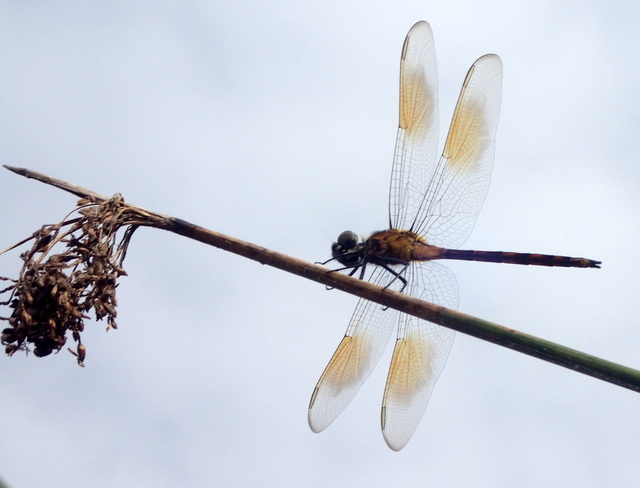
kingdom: Animalia
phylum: Arthropoda
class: Insecta
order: Odonata
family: Libellulidae
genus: Brachymesia
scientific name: Brachymesia gravida
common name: Four-spotted pennant
